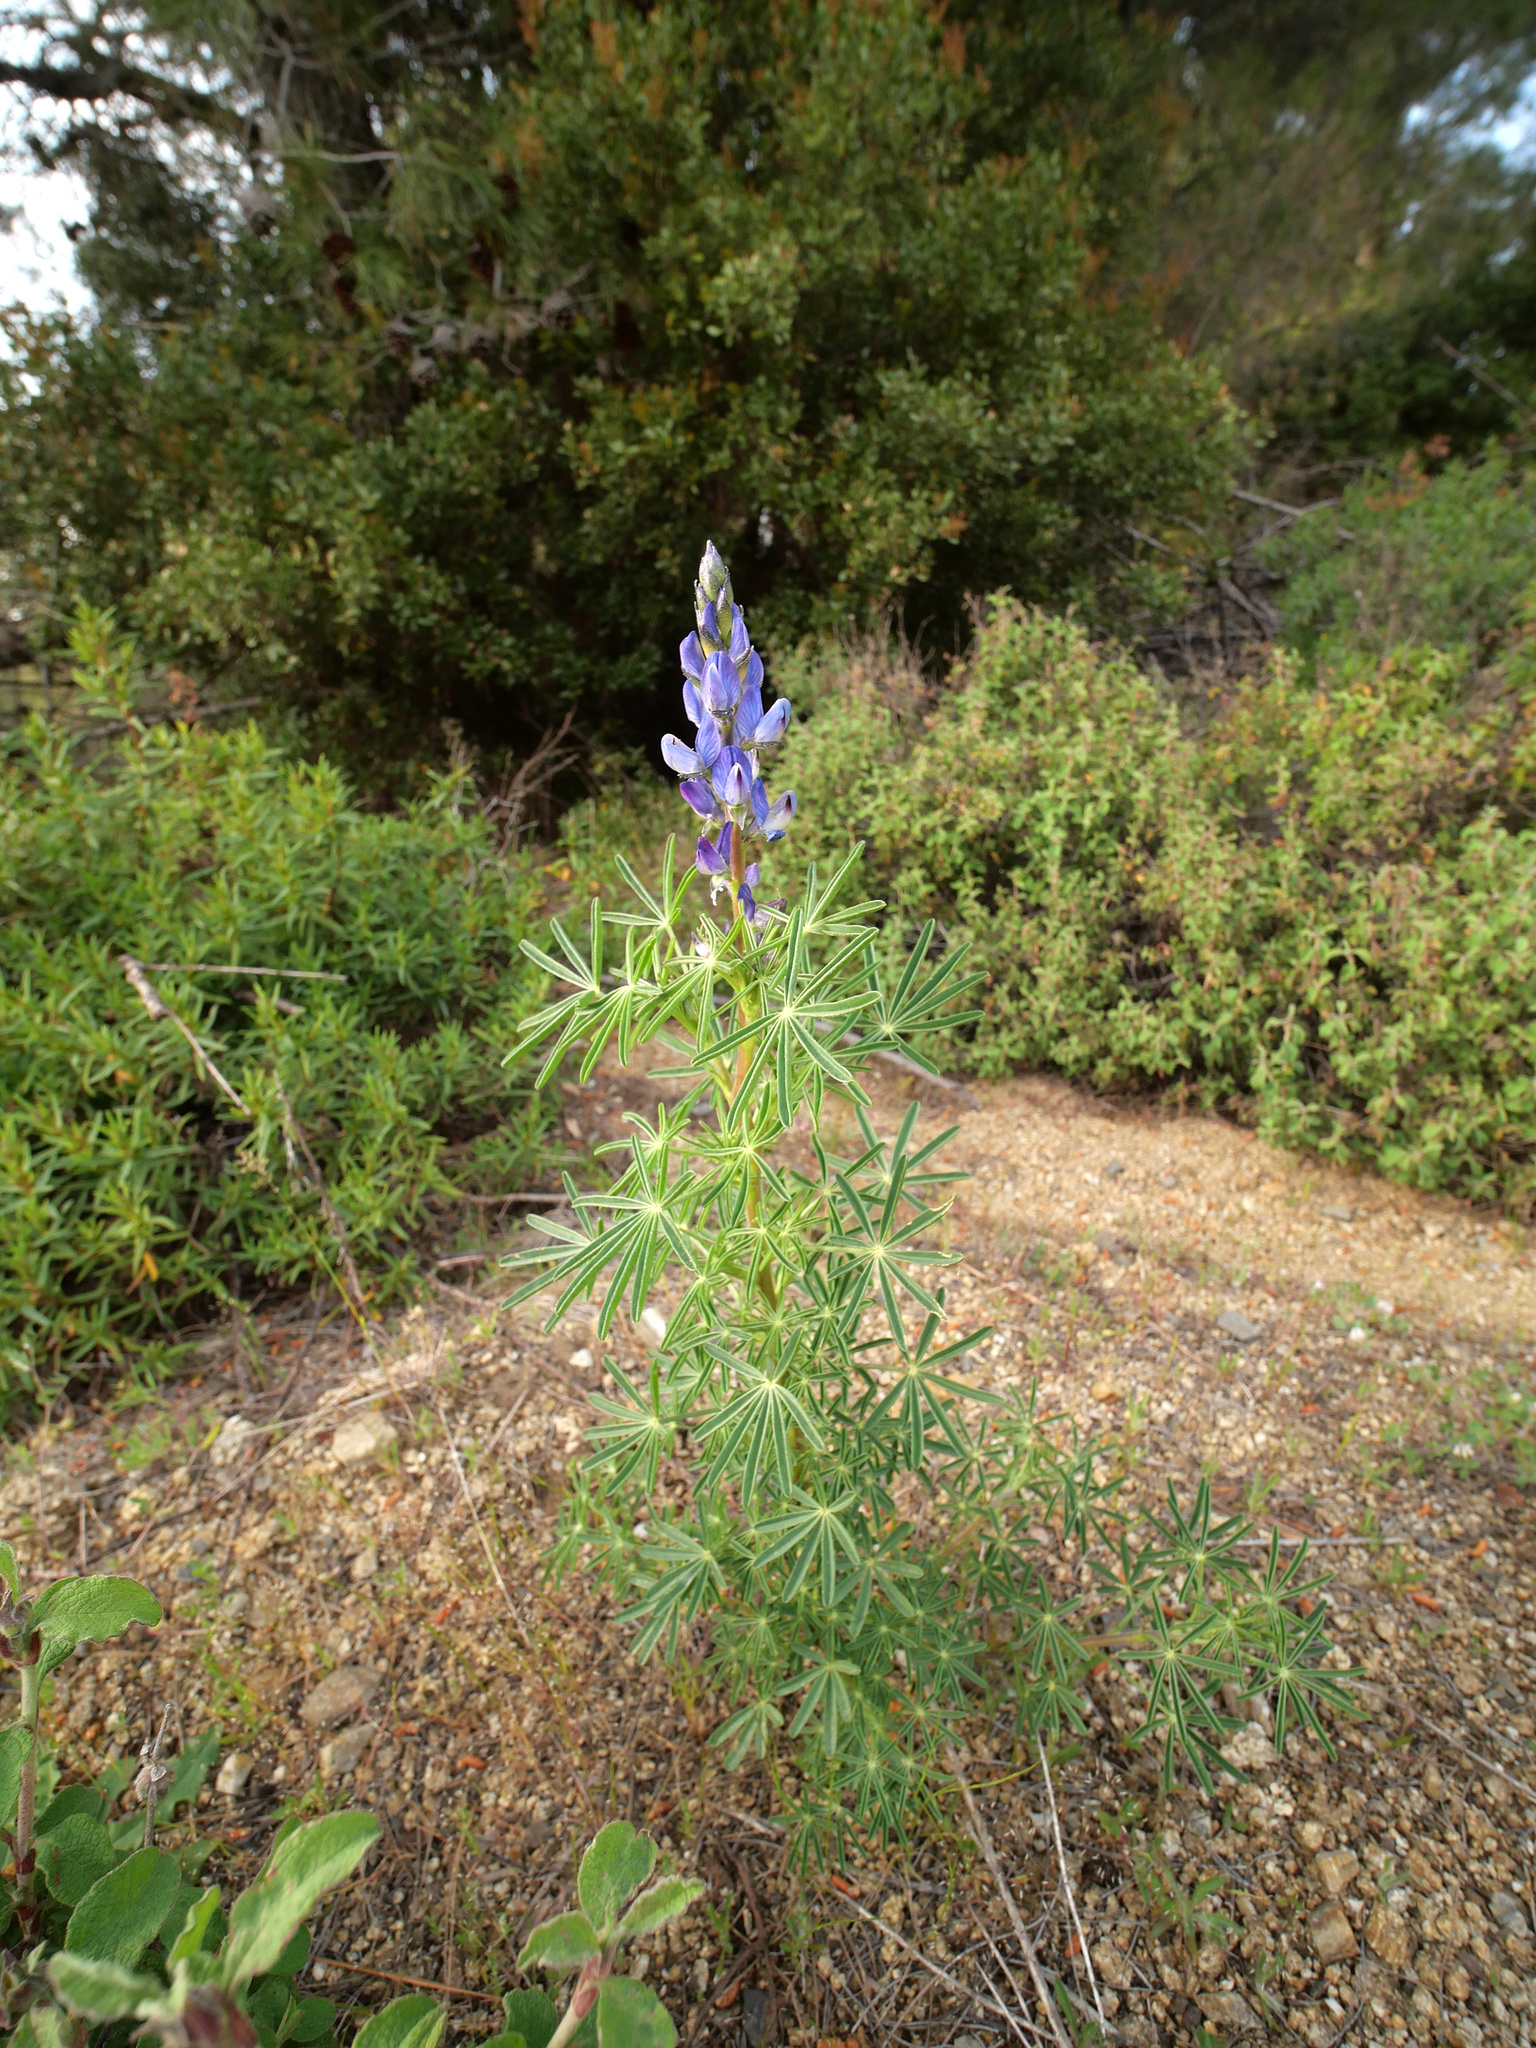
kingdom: Plantae
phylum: Tracheophyta
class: Magnoliopsida
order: Fabales
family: Fabaceae
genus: Lupinus
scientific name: Lupinus angustifolius
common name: Narrow-leaved lupin
